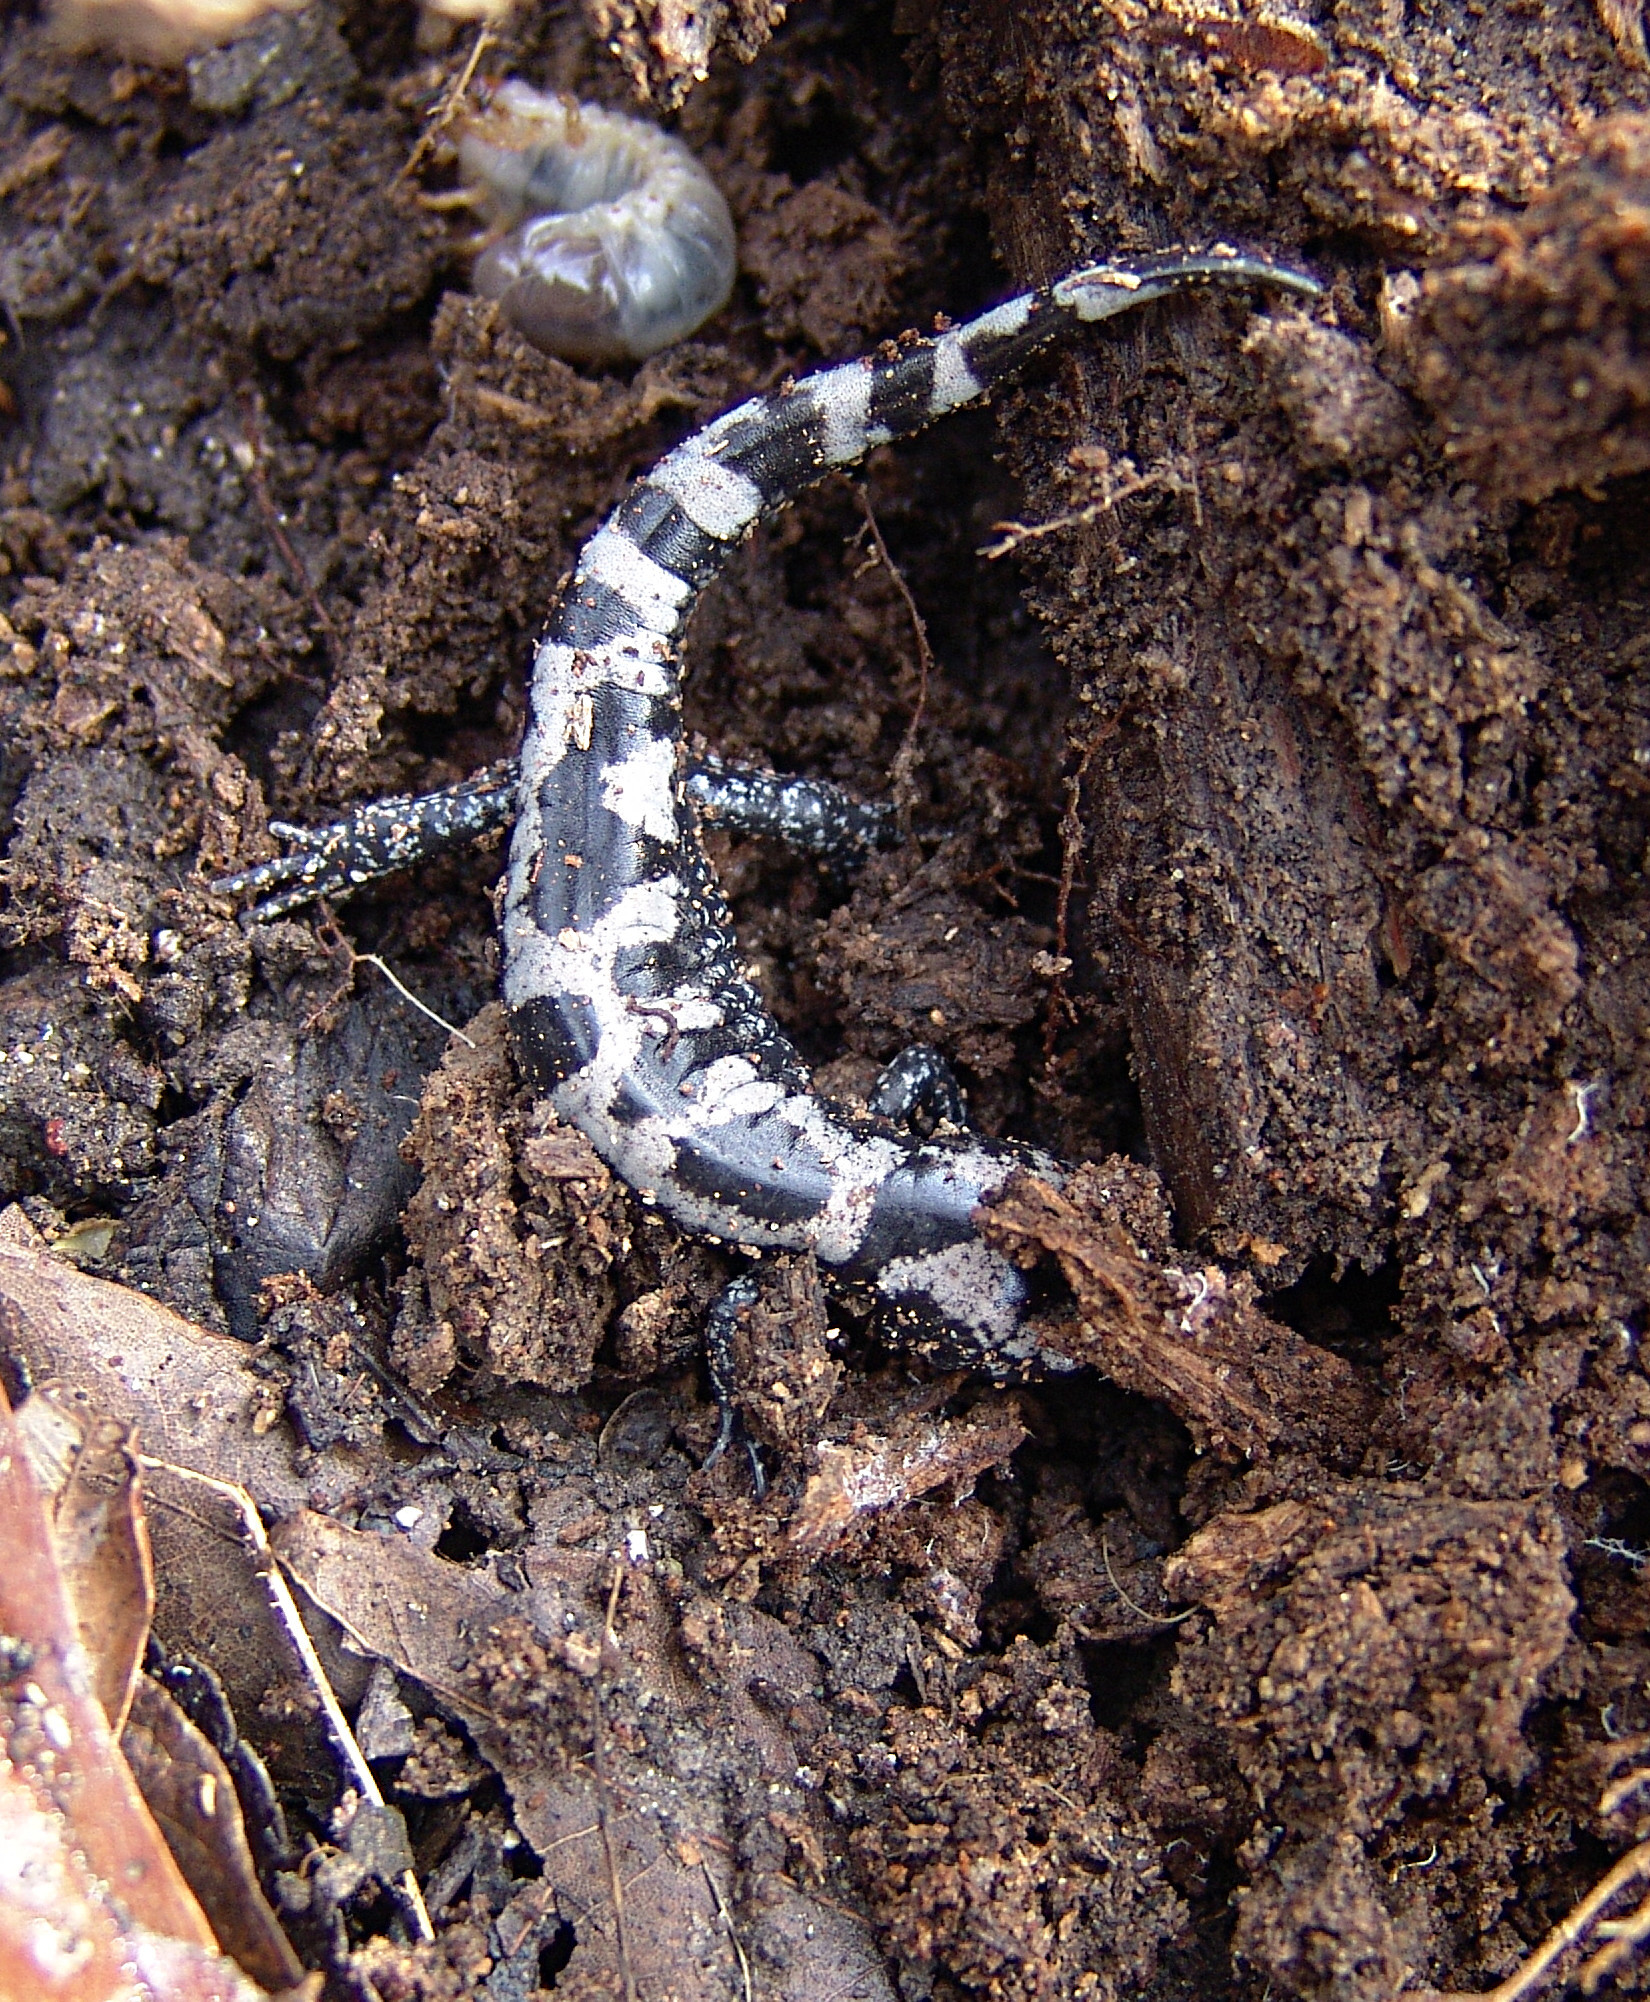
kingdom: Animalia
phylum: Chordata
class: Amphibia
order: Caudata
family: Ambystomatidae
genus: Ambystoma
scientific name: Ambystoma opacum
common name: Marbled salamander
